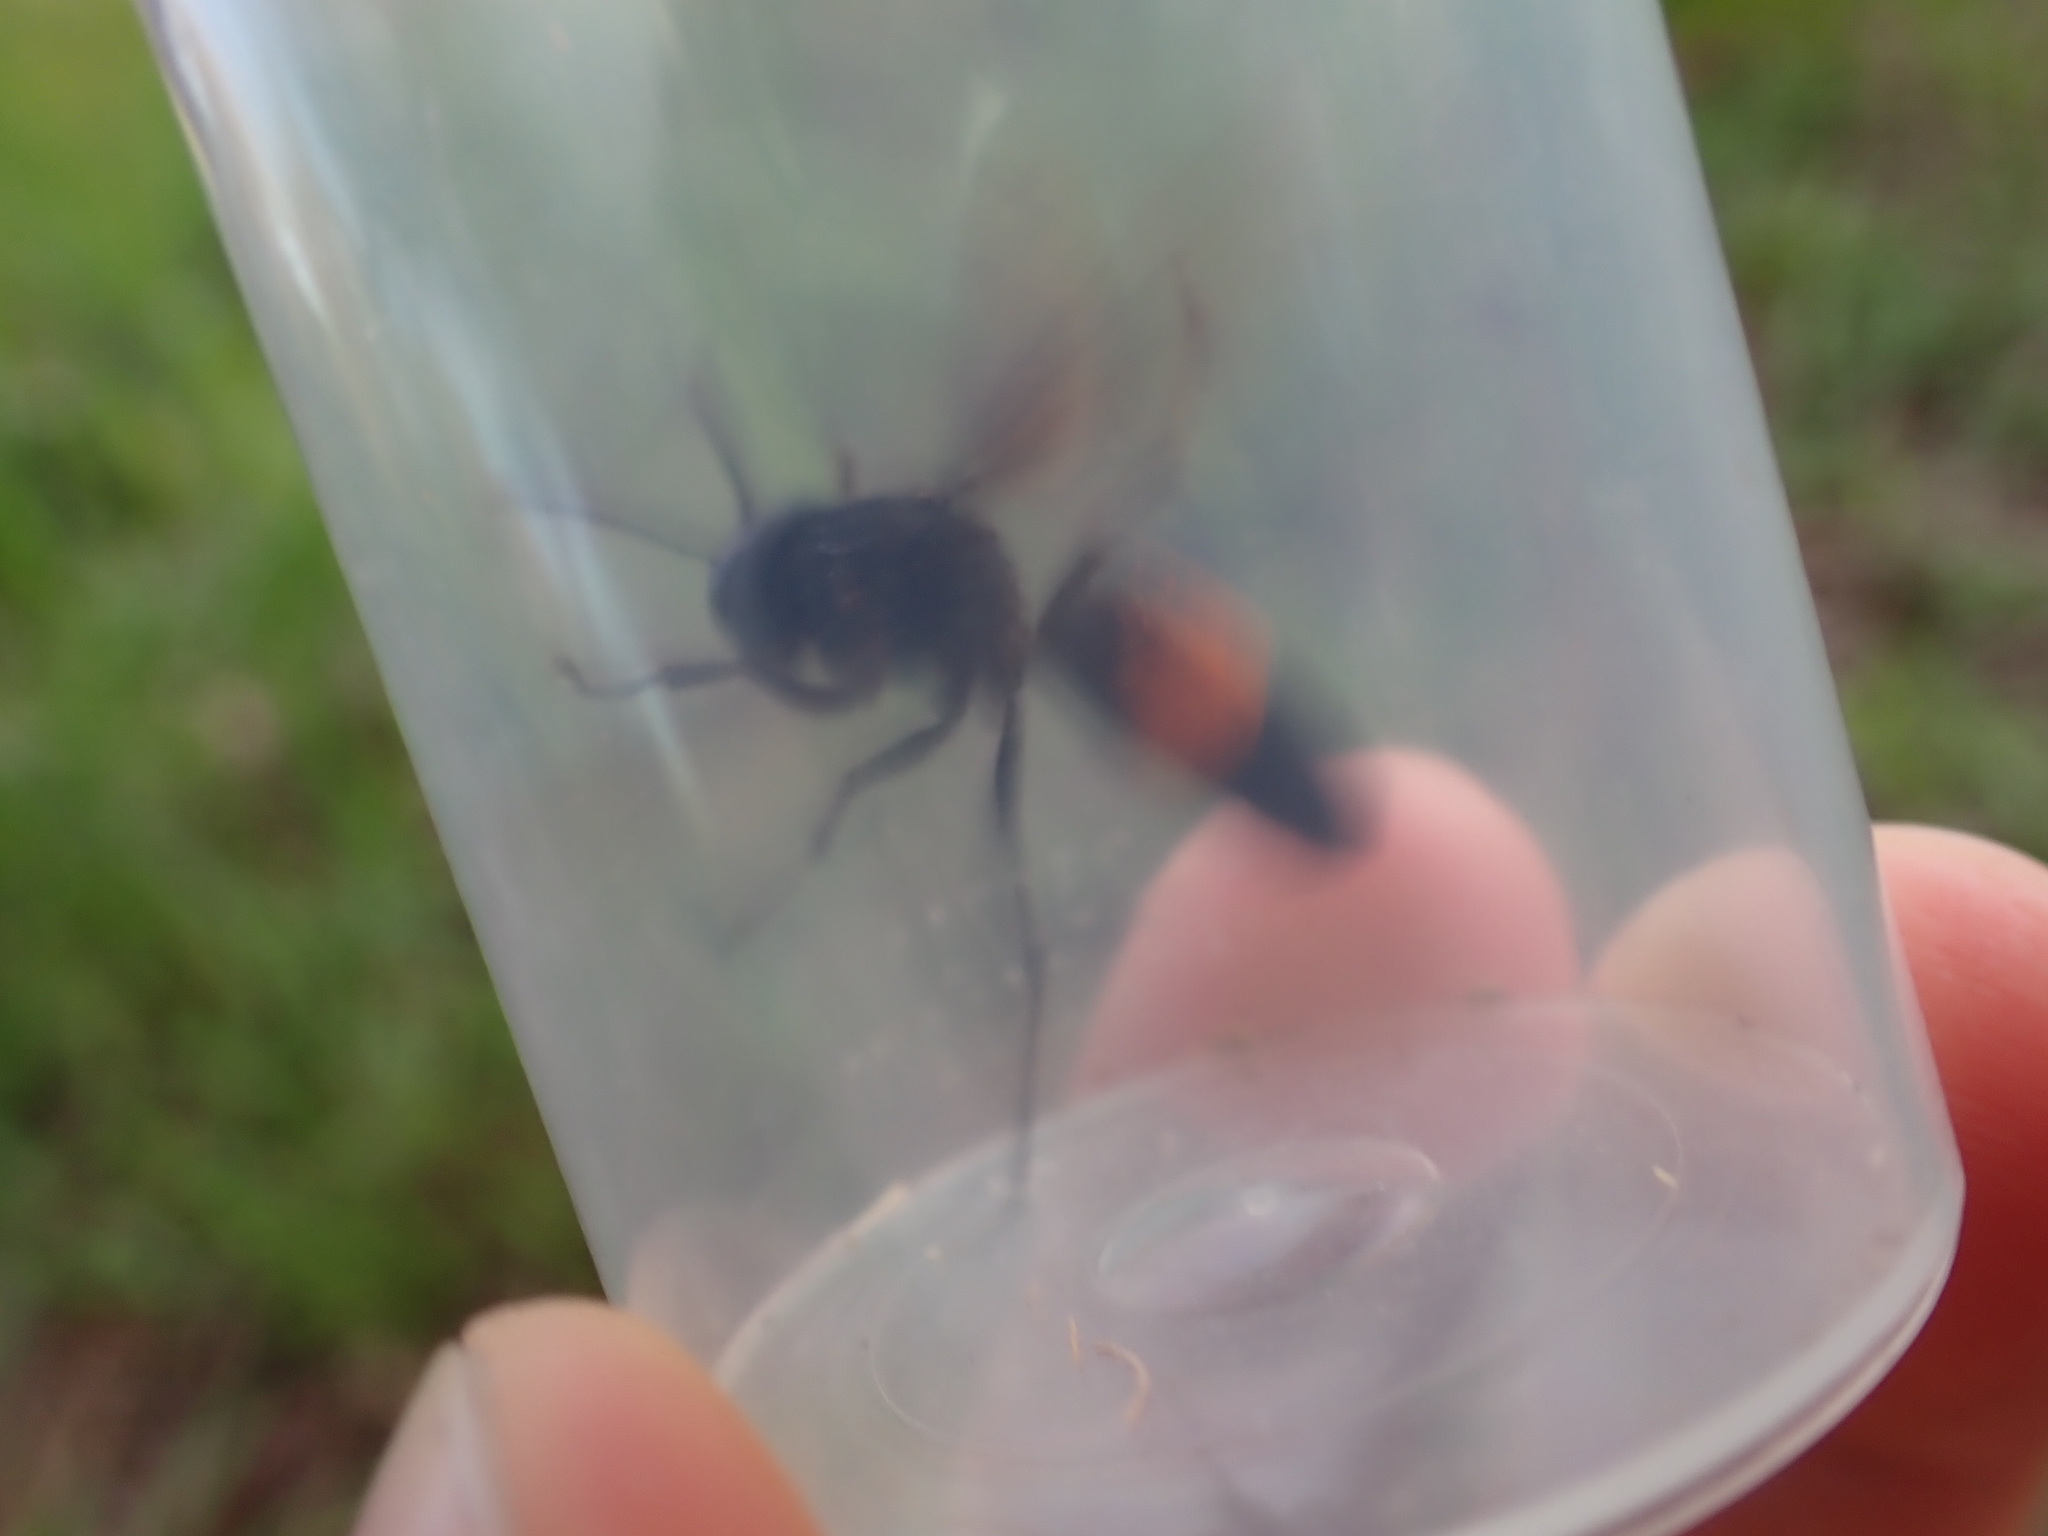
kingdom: Animalia
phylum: Arthropoda
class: Insecta
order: Hymenoptera
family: Vespidae
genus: Vespa
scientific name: Vespa affinis
